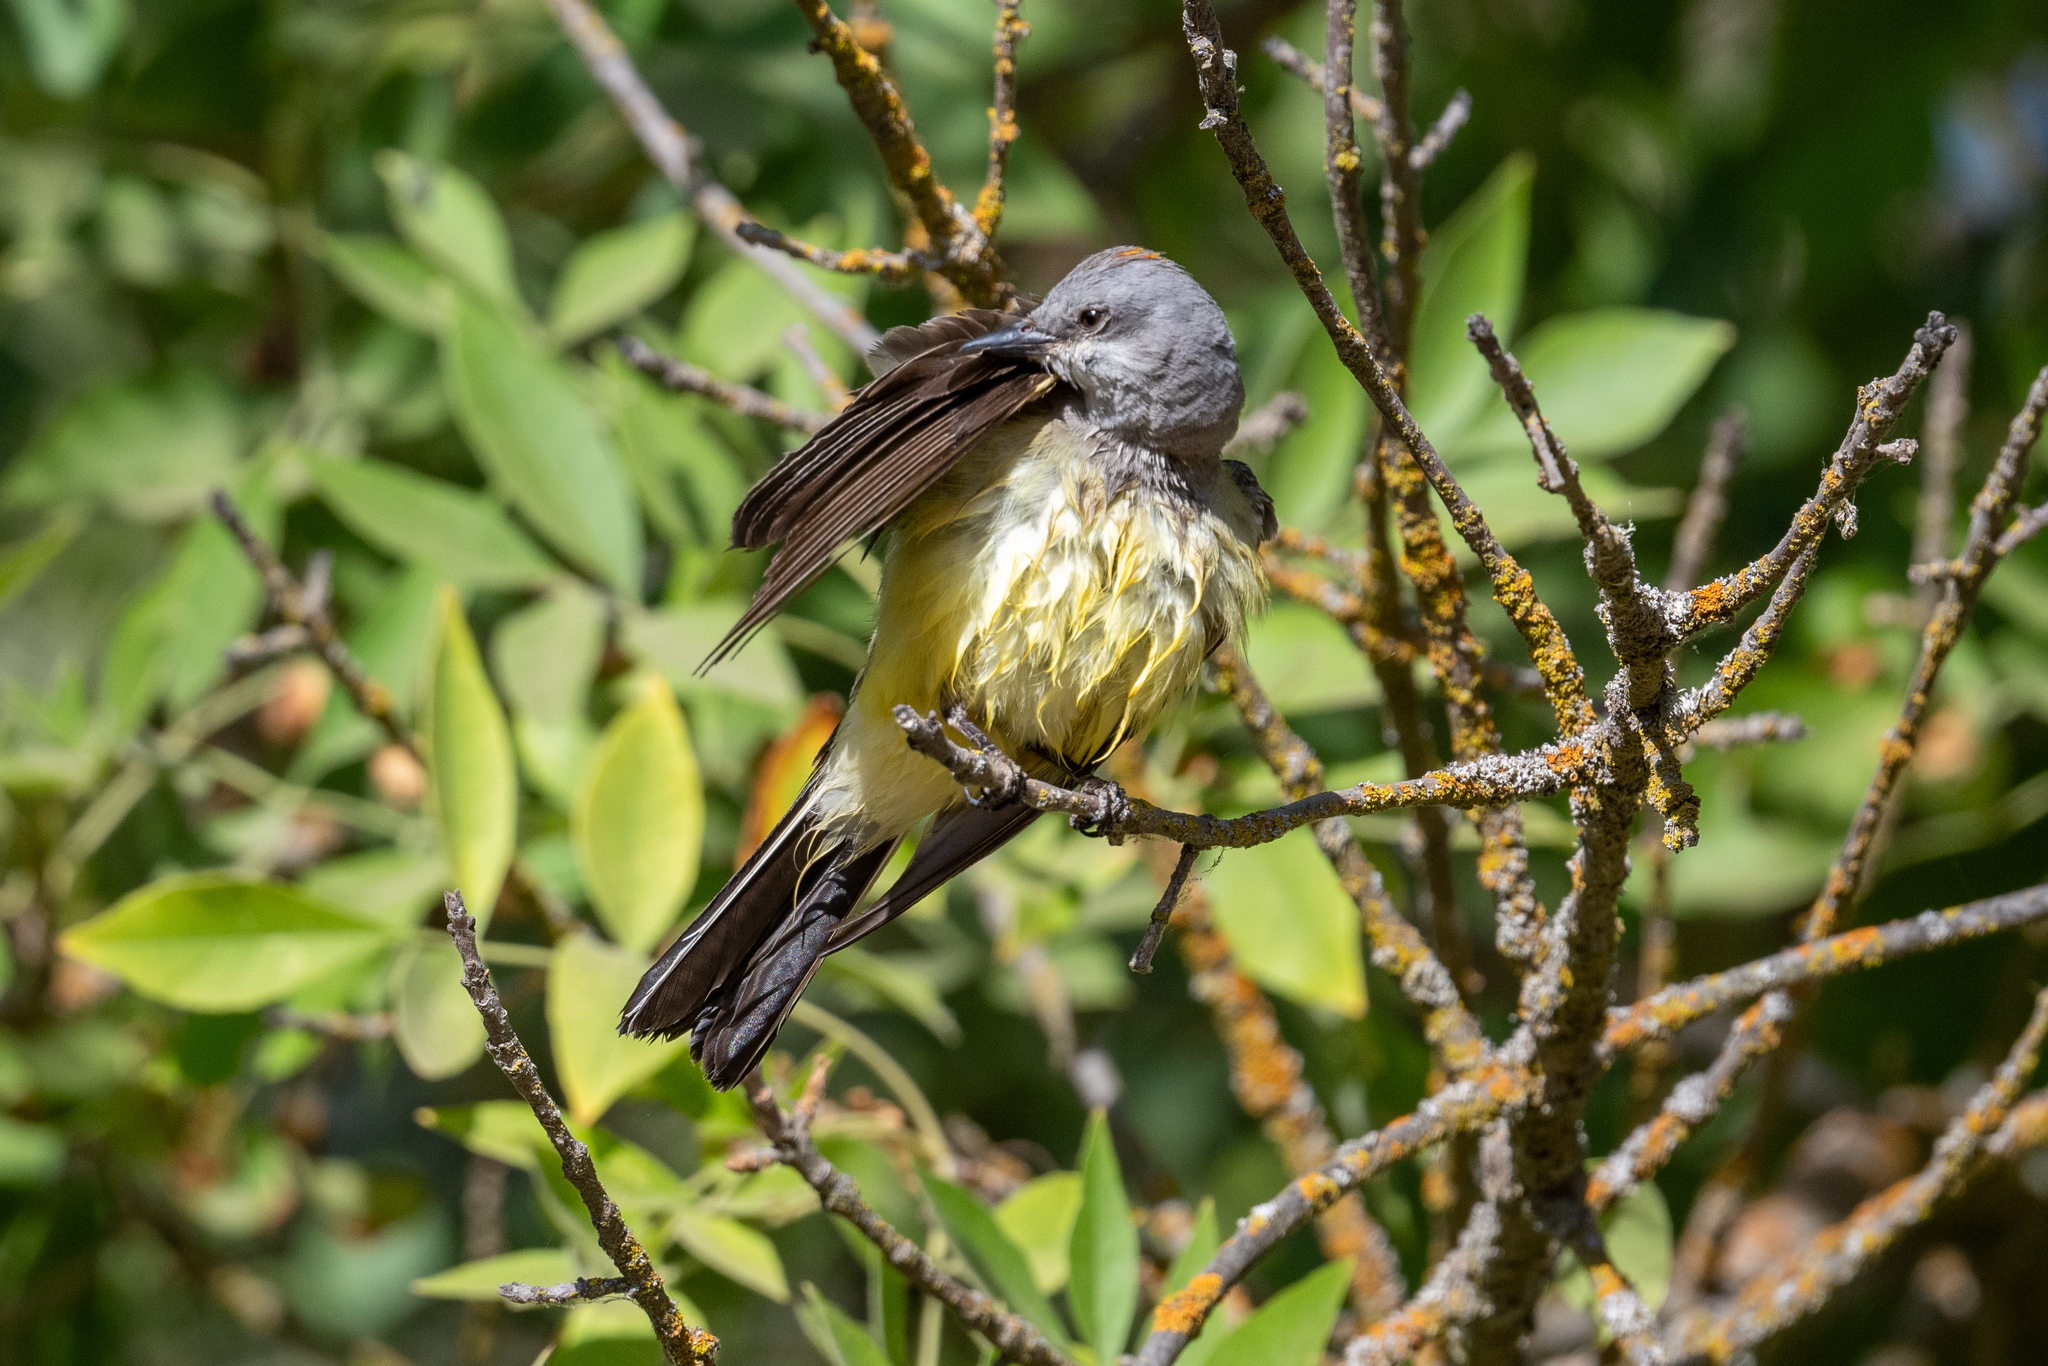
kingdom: Animalia
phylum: Chordata
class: Aves
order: Passeriformes
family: Tyrannidae
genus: Tyrannus
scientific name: Tyrannus verticalis
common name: Western kingbird
